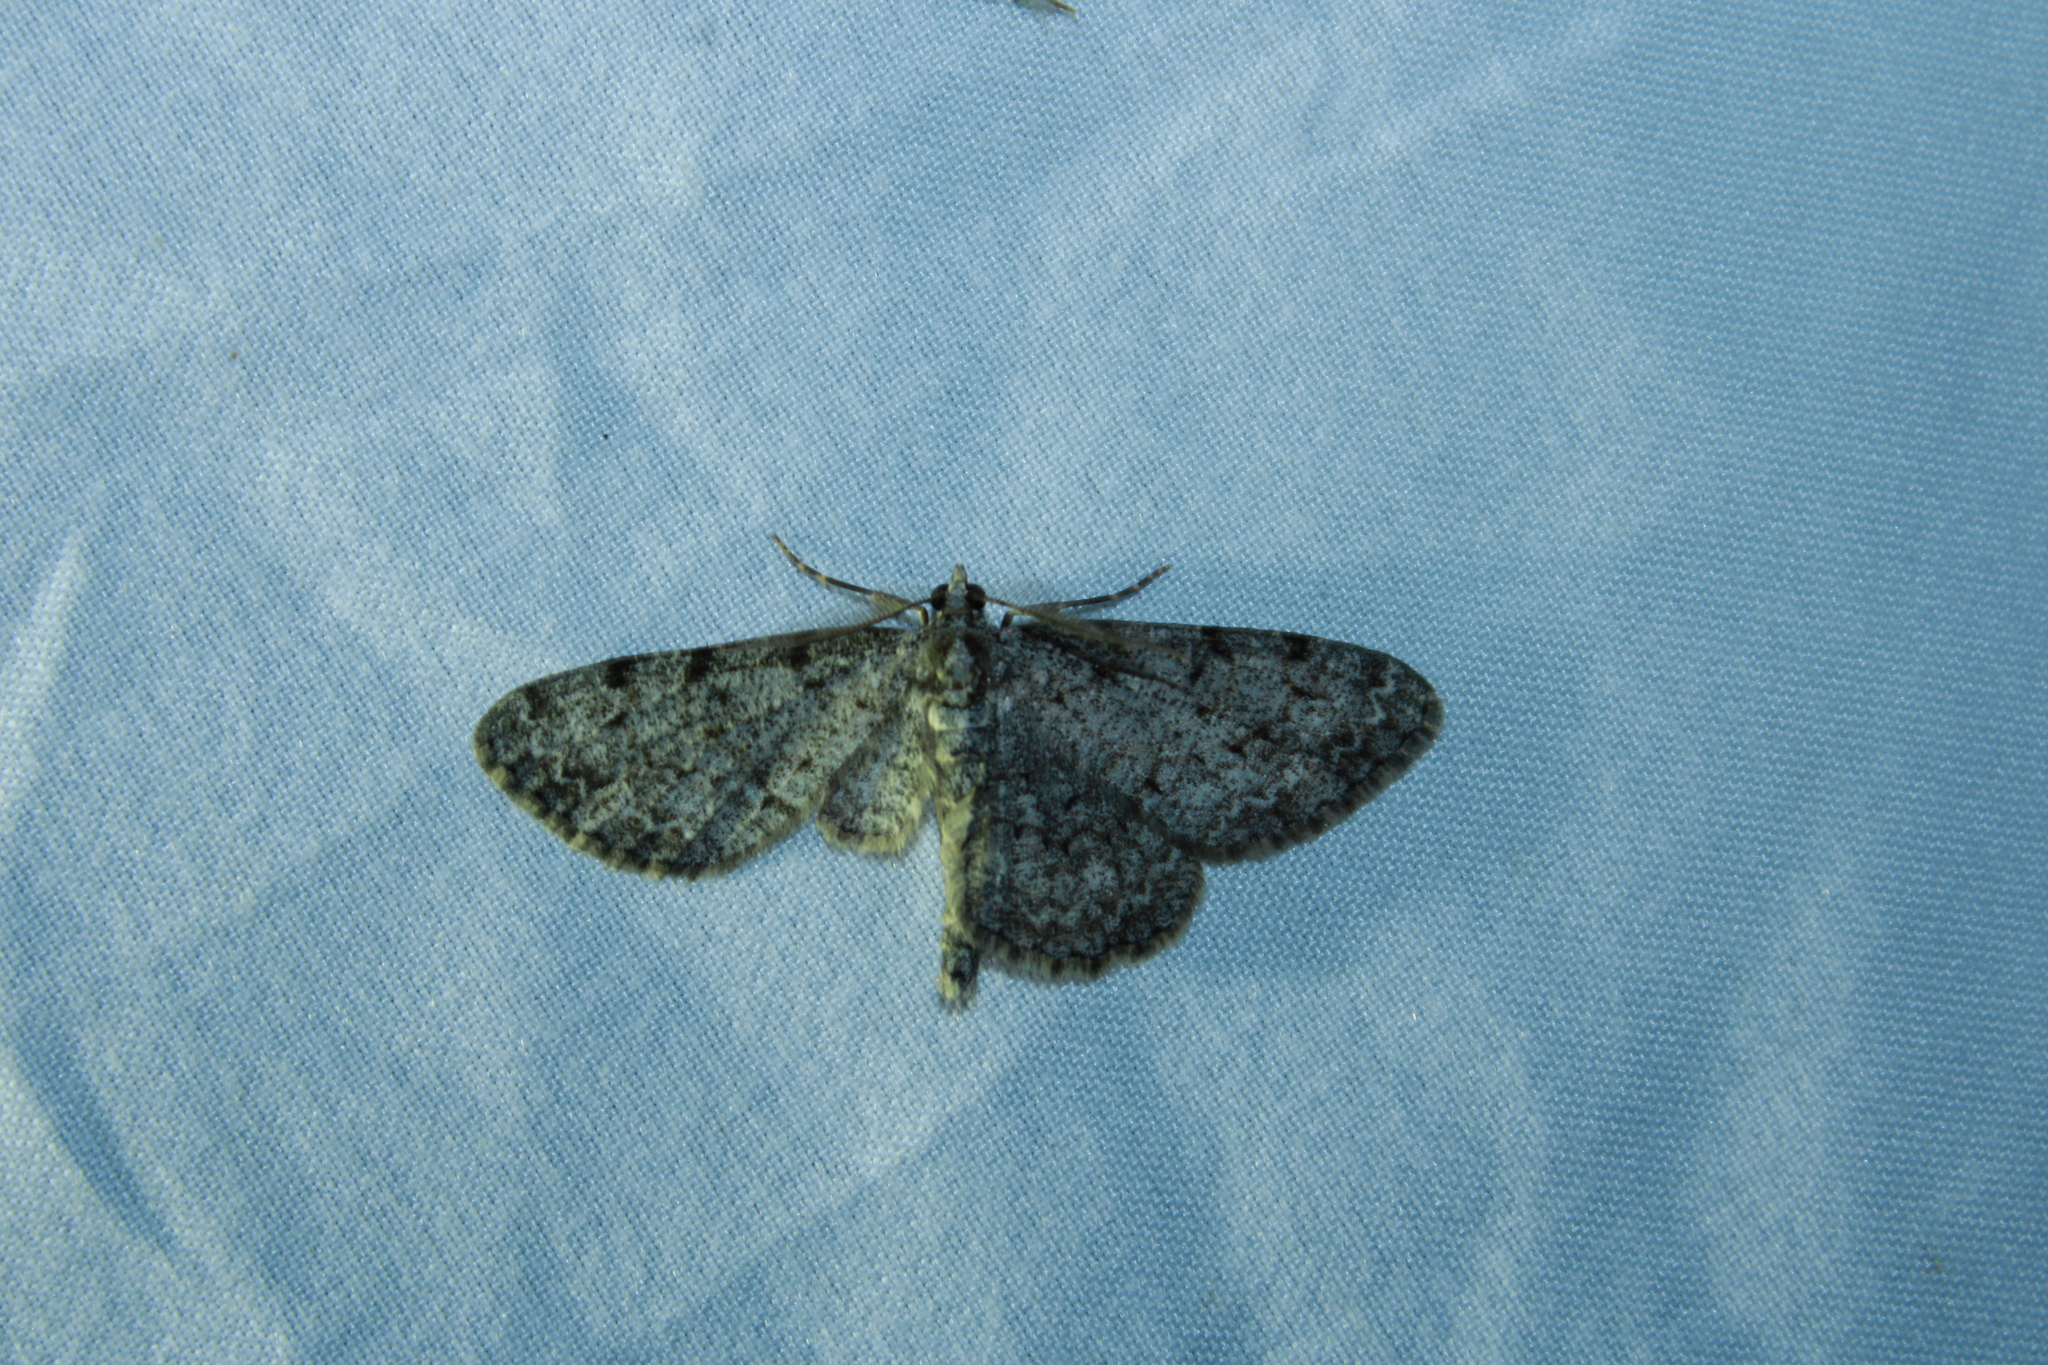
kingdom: Animalia
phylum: Arthropoda
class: Insecta
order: Lepidoptera
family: Geometridae
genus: Protoboarmia
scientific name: Protoboarmia porcelaria
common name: Porcelain gray
